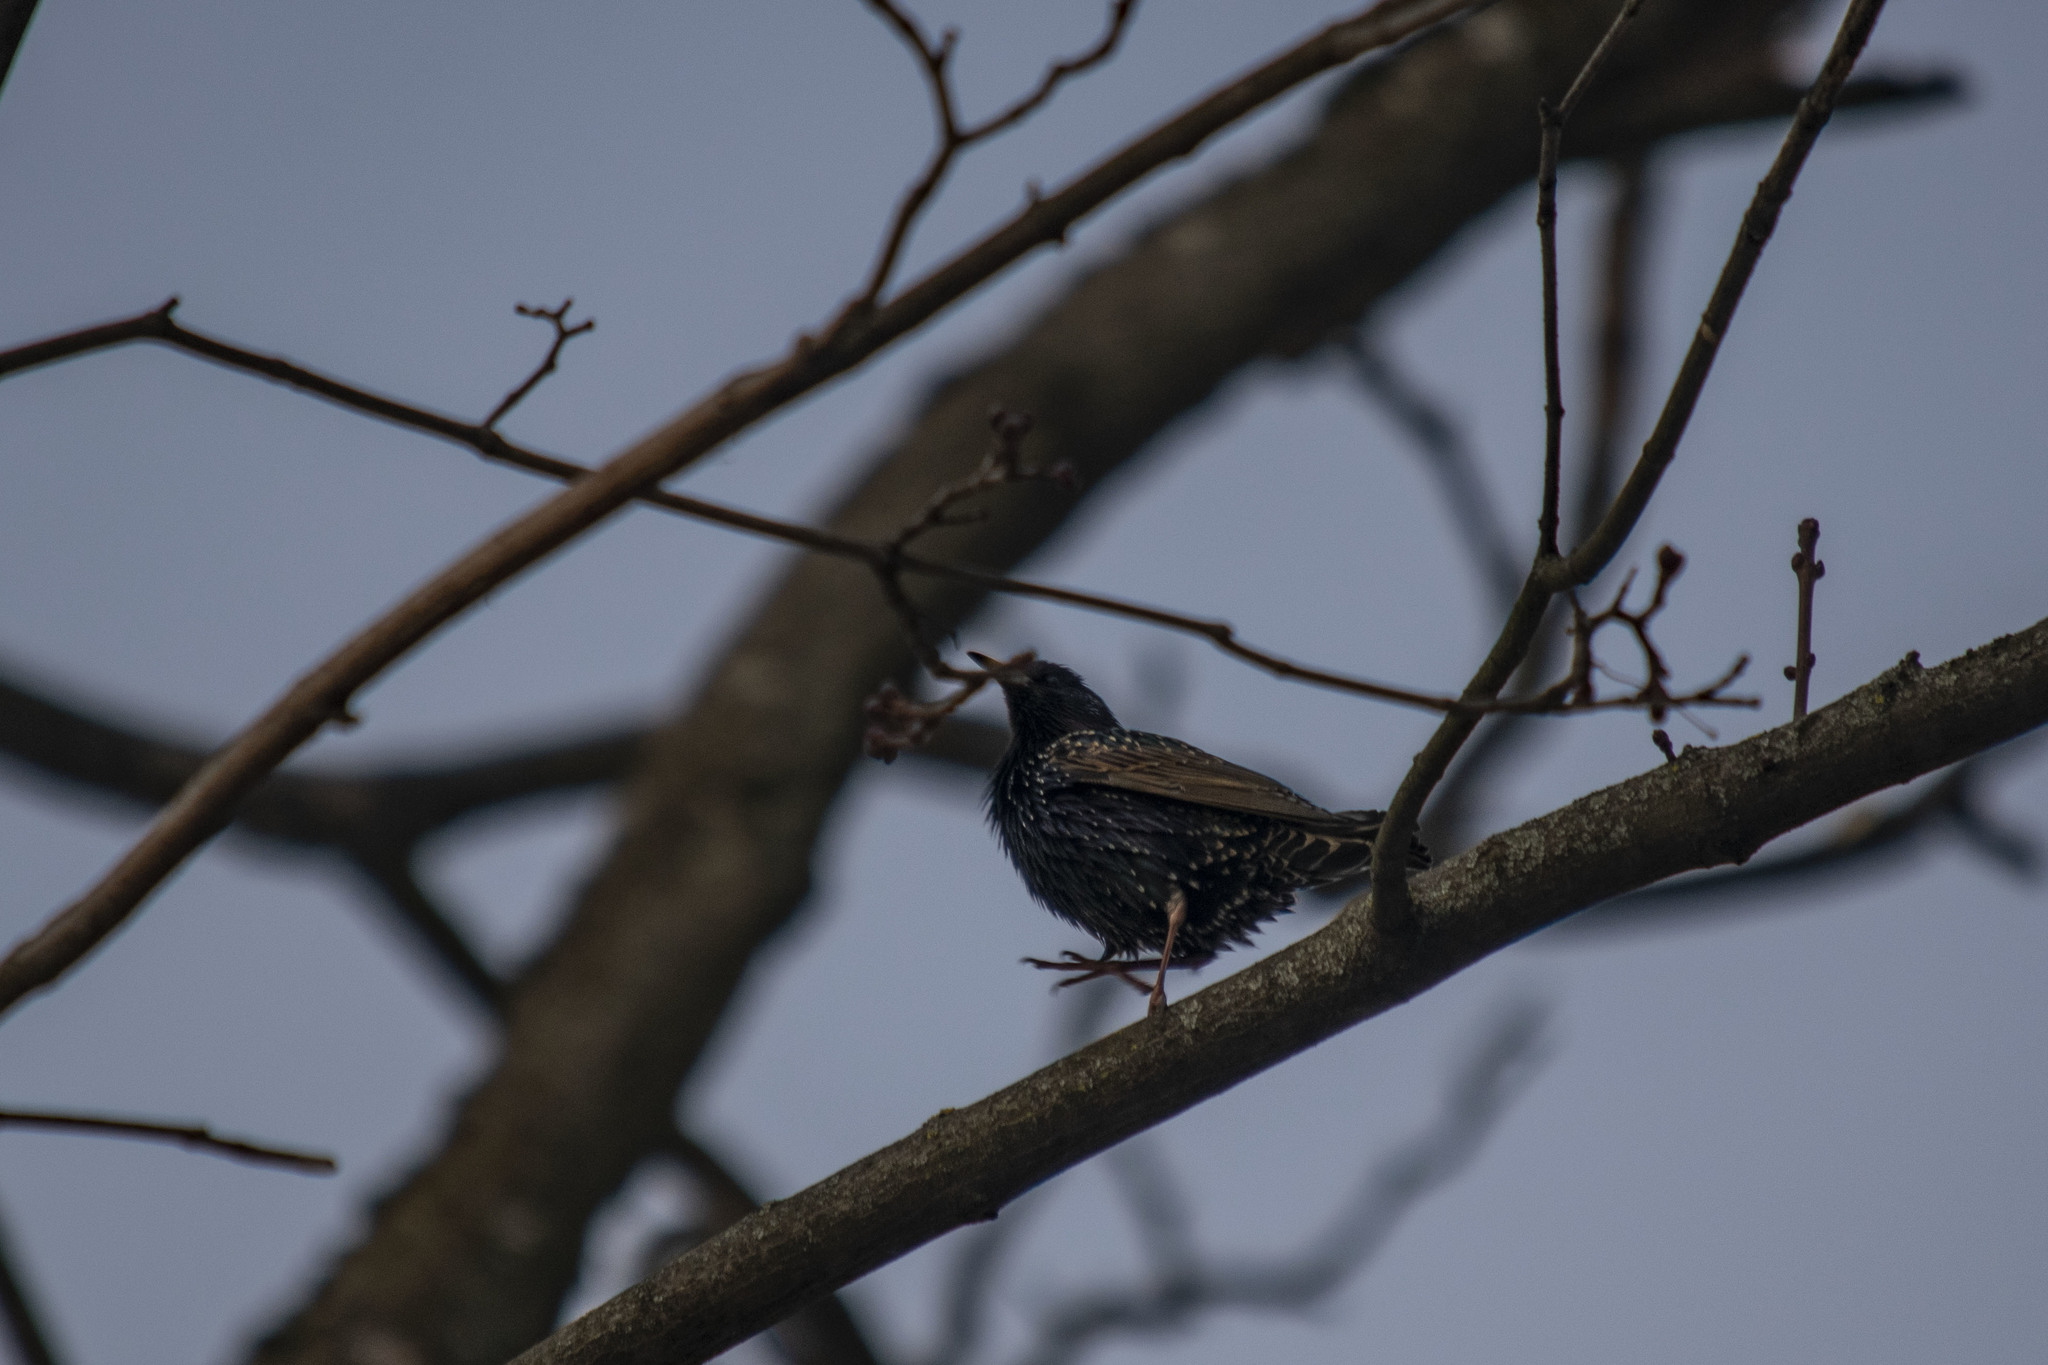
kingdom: Animalia
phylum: Chordata
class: Aves
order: Passeriformes
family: Sturnidae
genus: Sturnus
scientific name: Sturnus vulgaris
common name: Common starling
